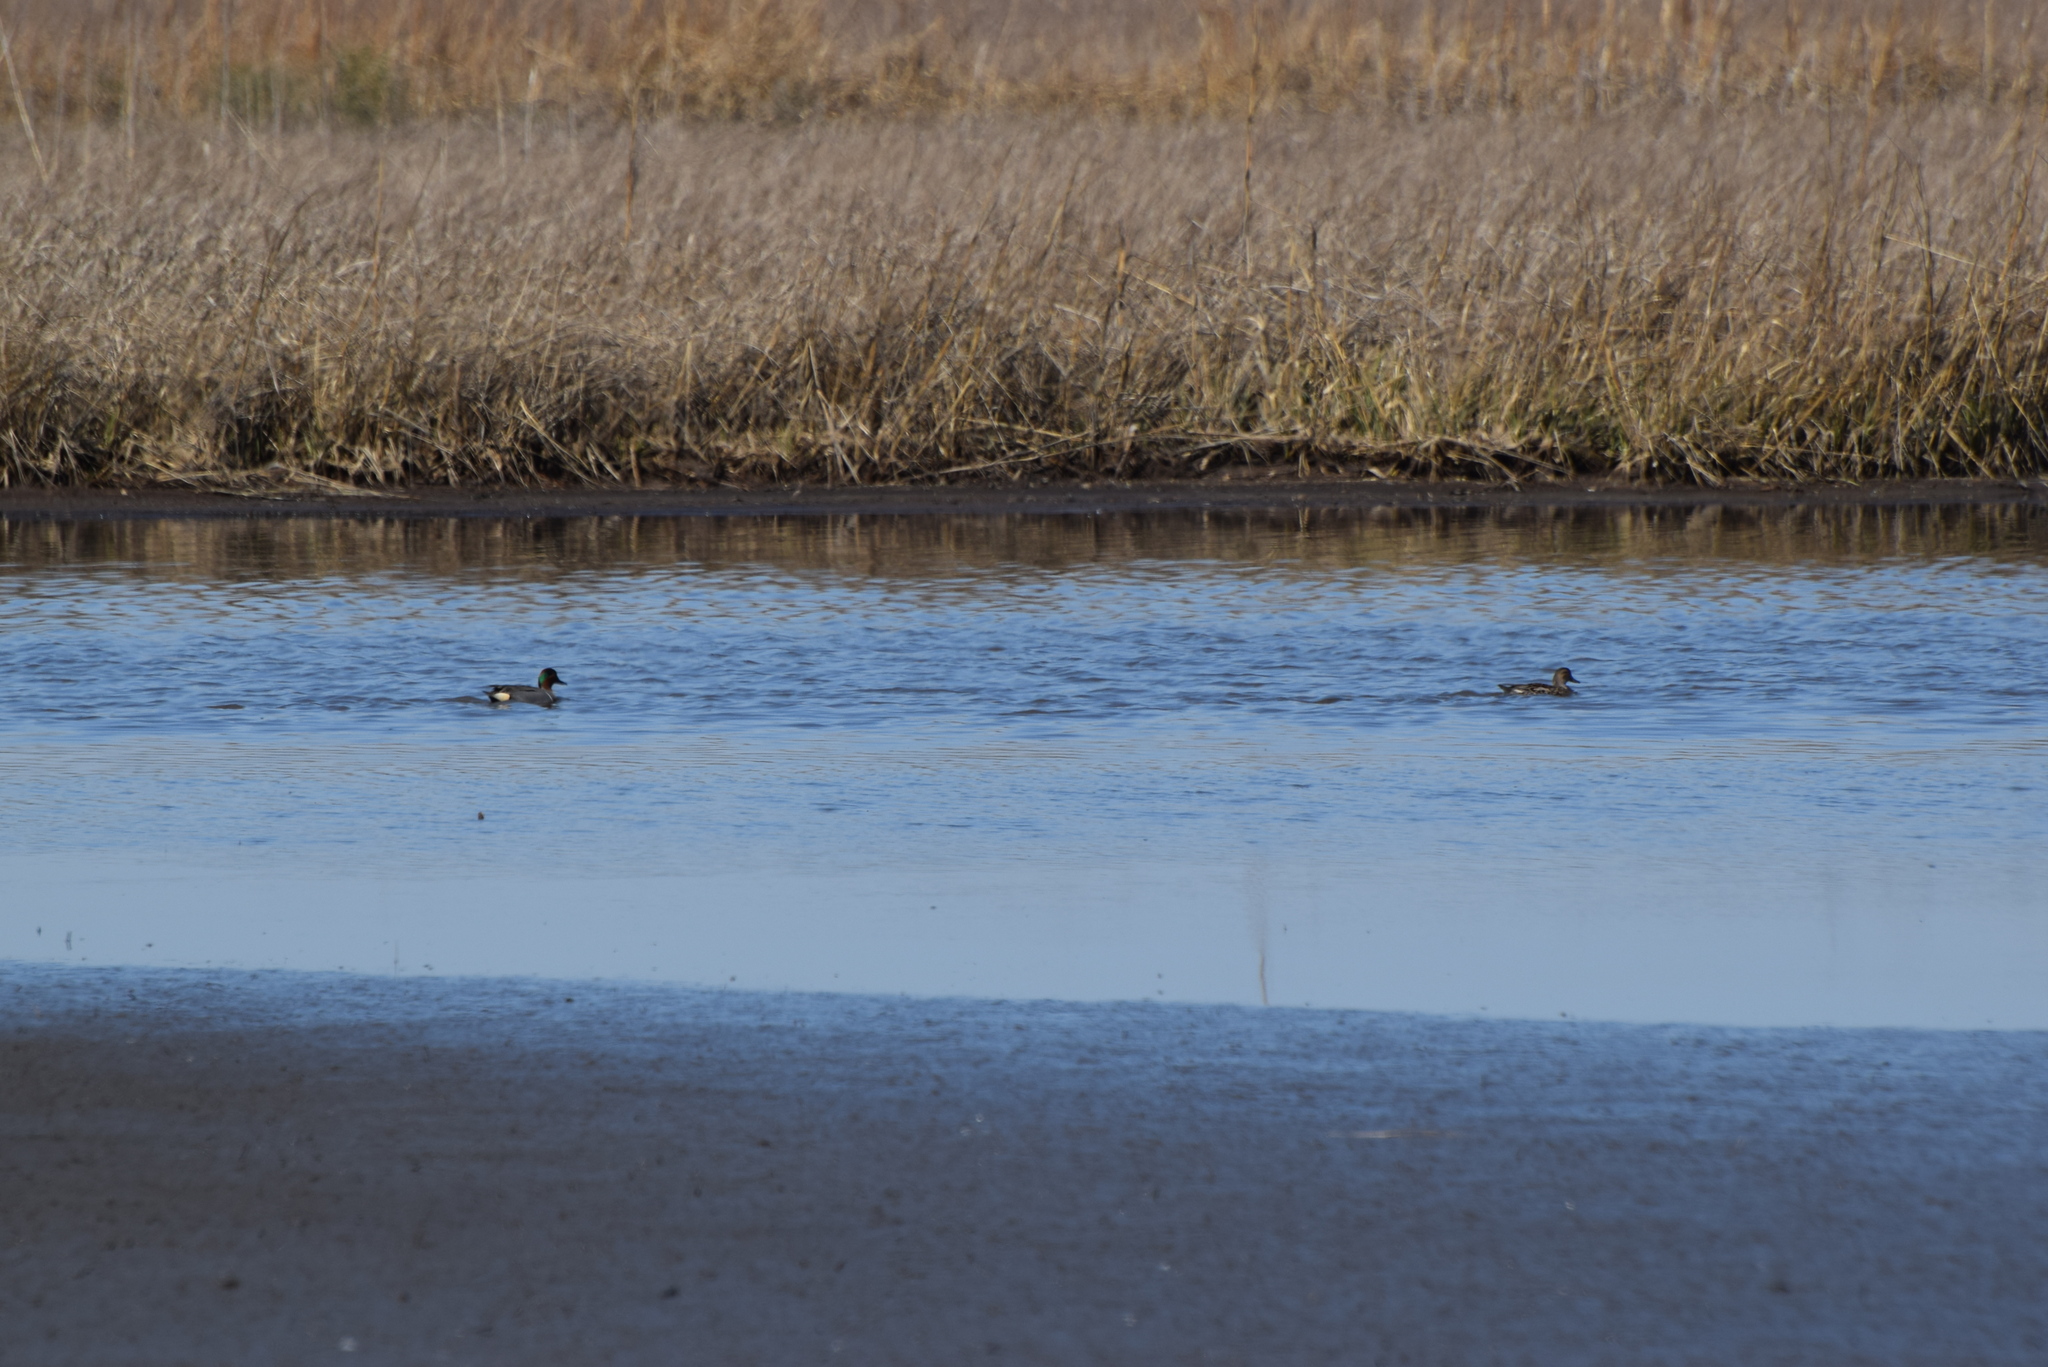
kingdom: Animalia
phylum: Chordata
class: Aves
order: Anseriformes
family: Anatidae
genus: Anas
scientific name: Anas crecca
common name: Eurasian teal
